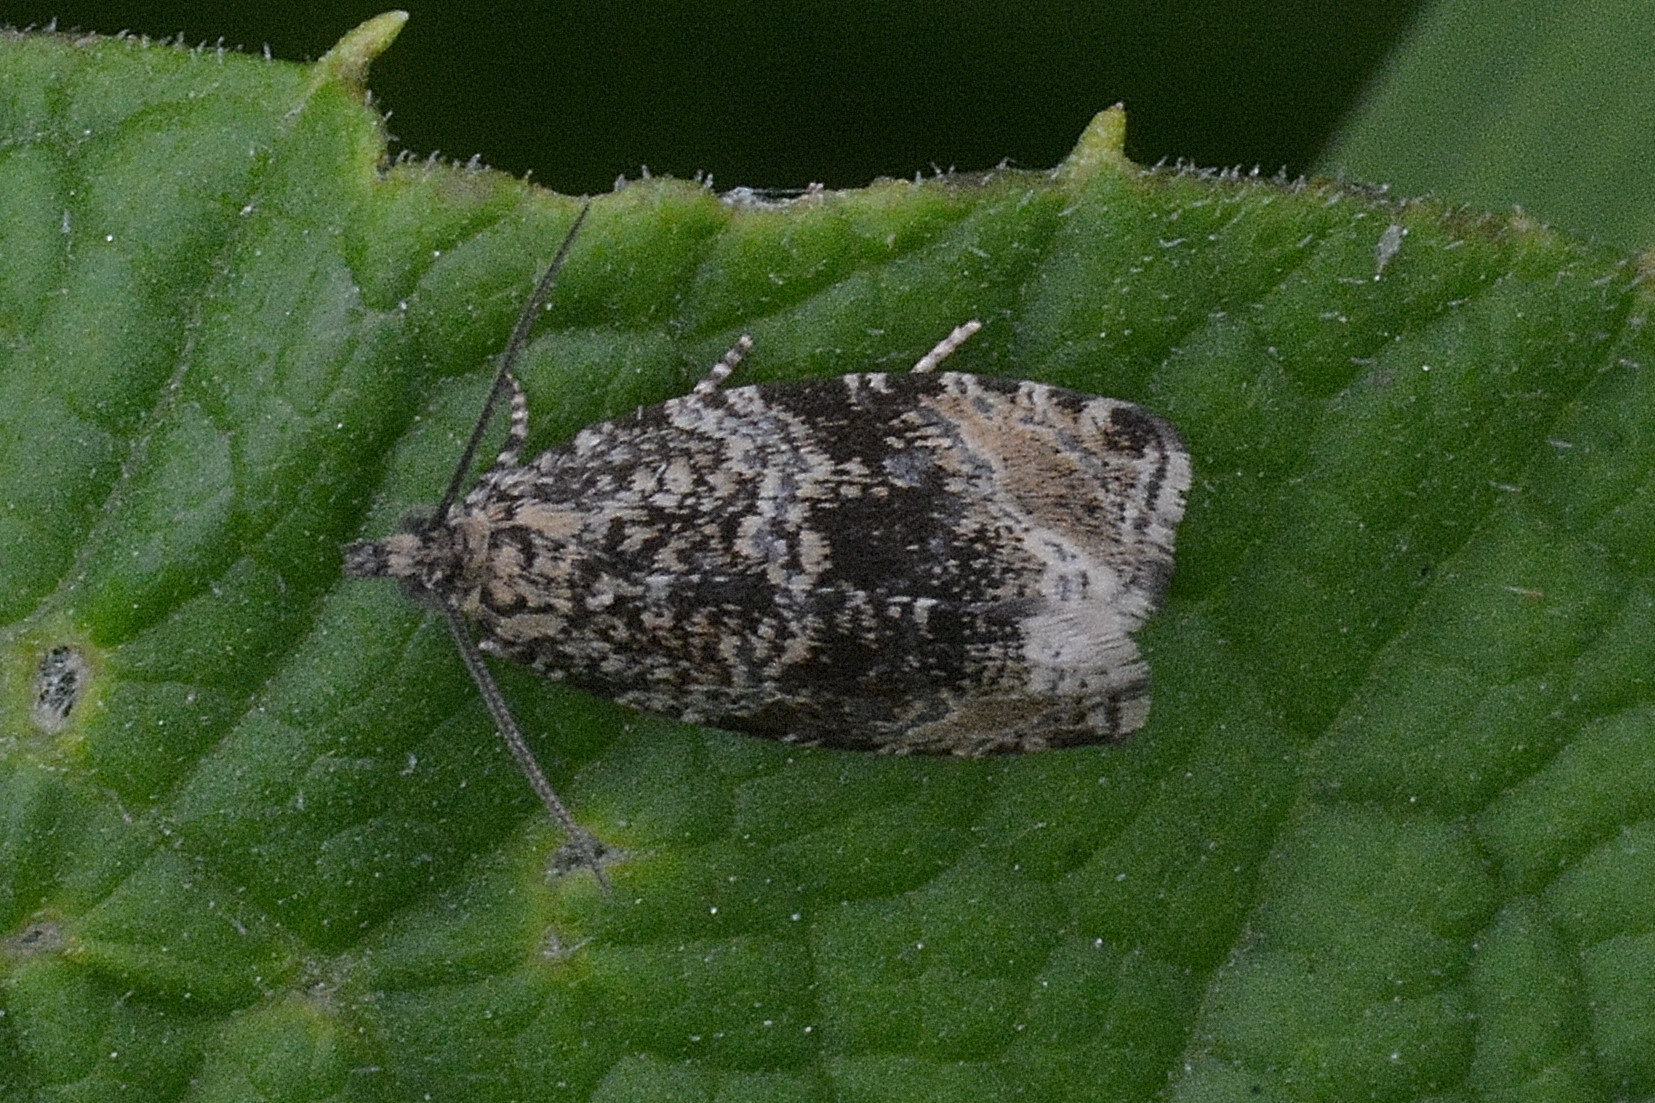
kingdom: Animalia
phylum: Arthropoda
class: Insecta
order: Lepidoptera
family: Tortricidae
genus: Syricoris
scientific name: Syricoris lacunana
